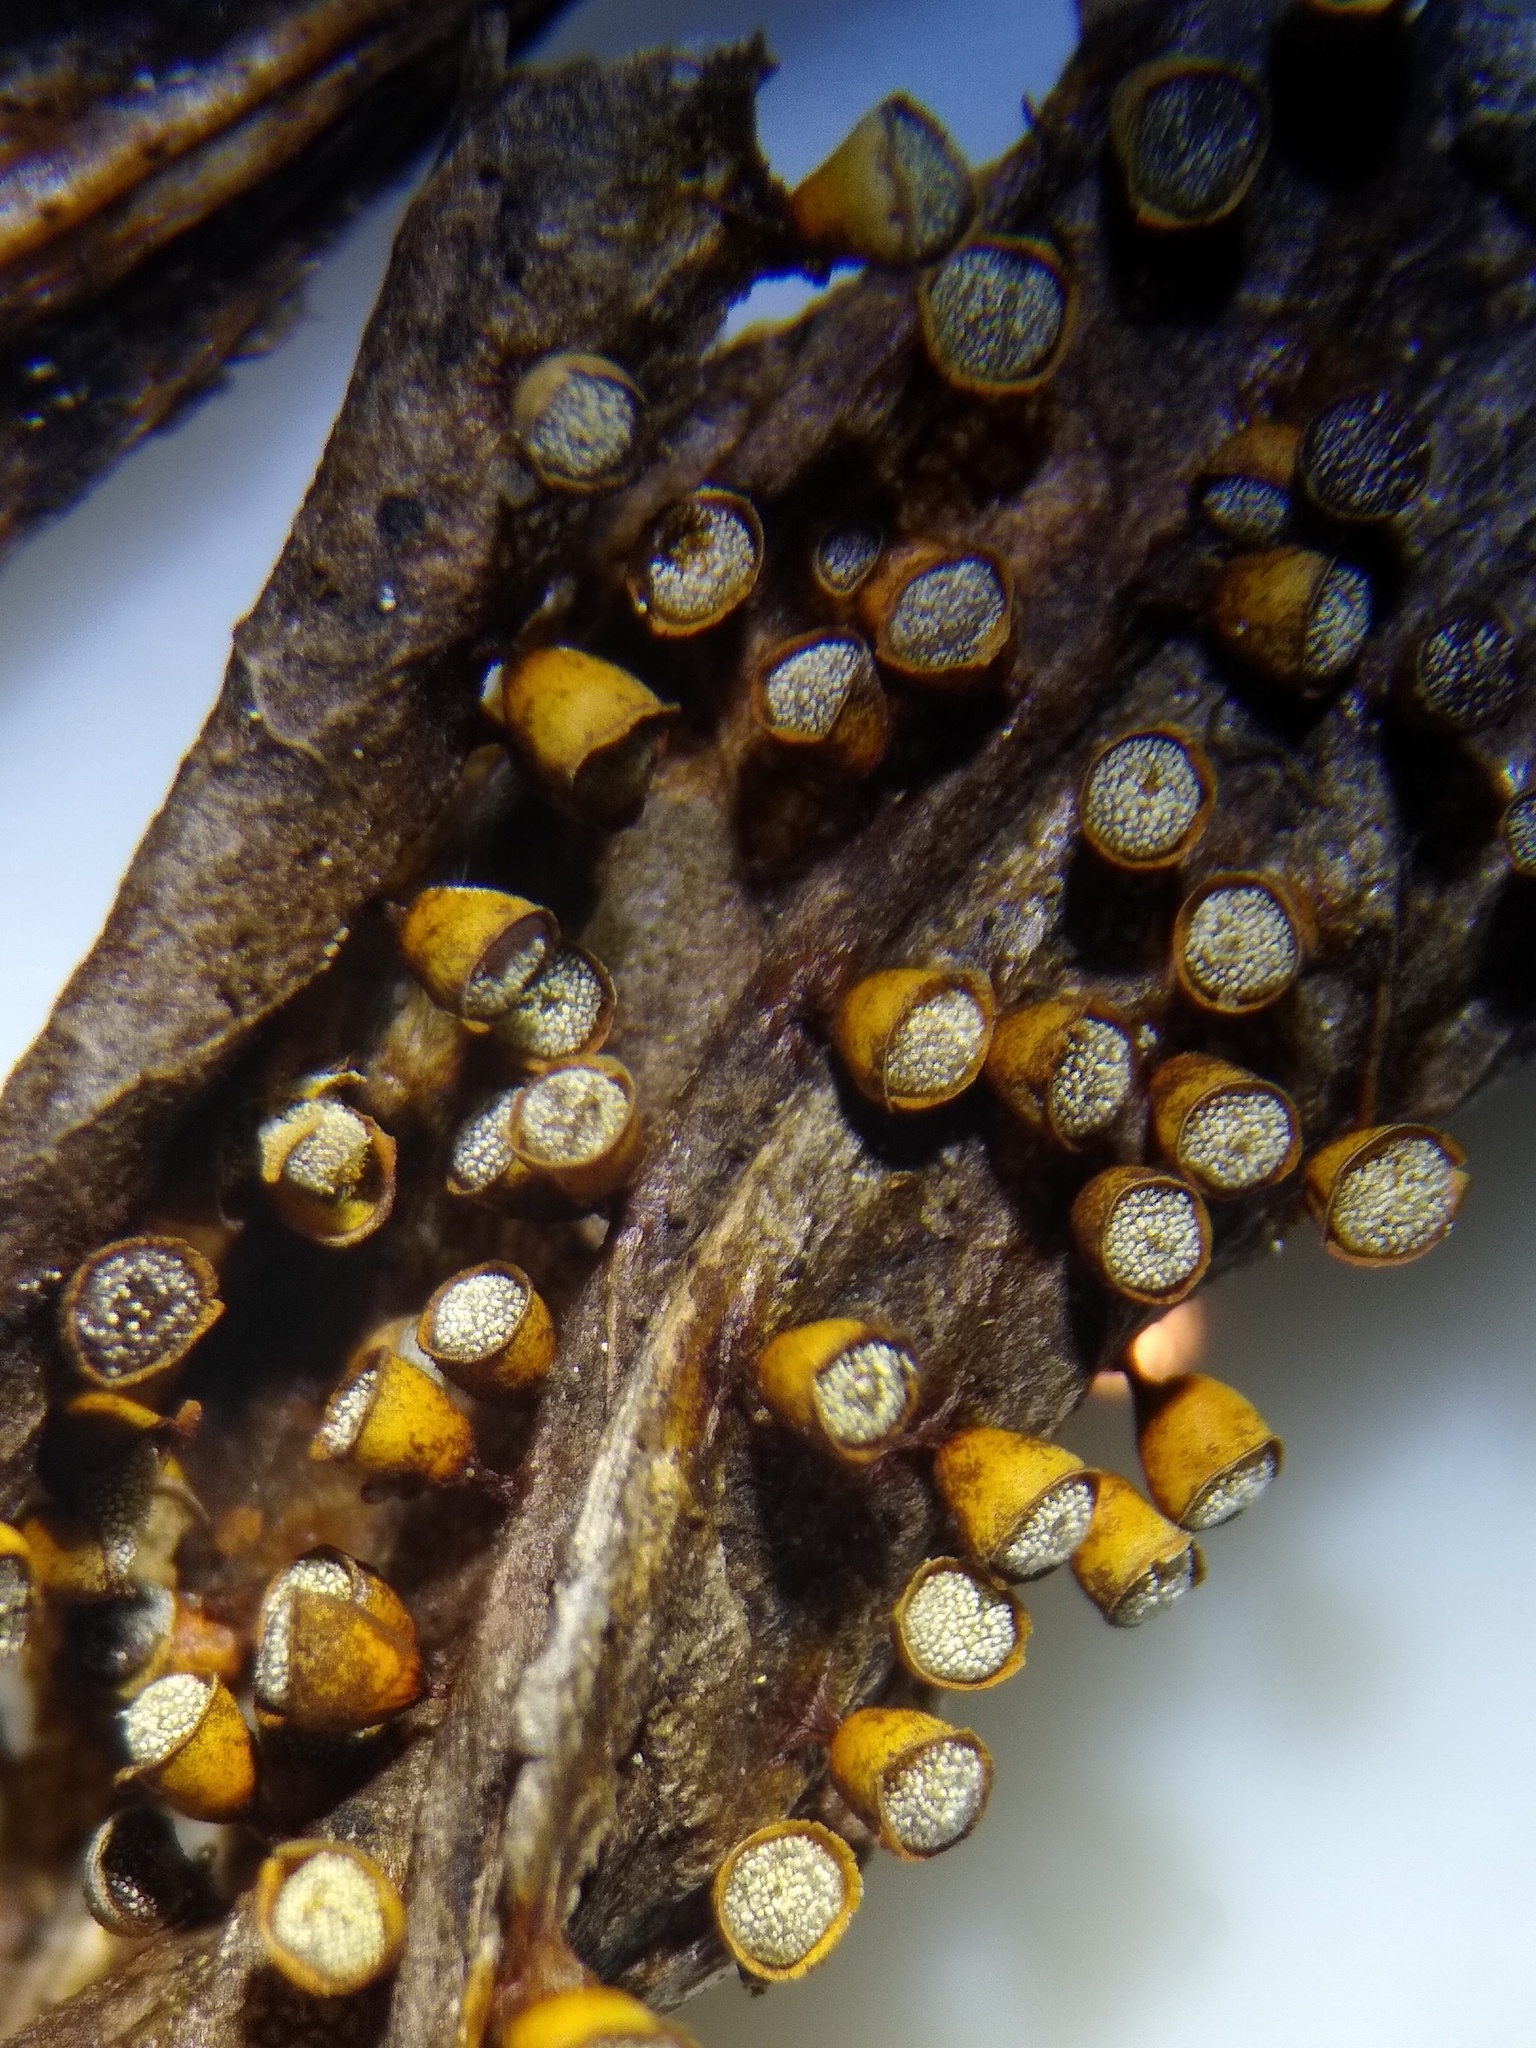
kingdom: Protozoa
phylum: Mycetozoa
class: Myxomycetes
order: Physarales
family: Physaraceae
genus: Craterium
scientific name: Craterium minutum
